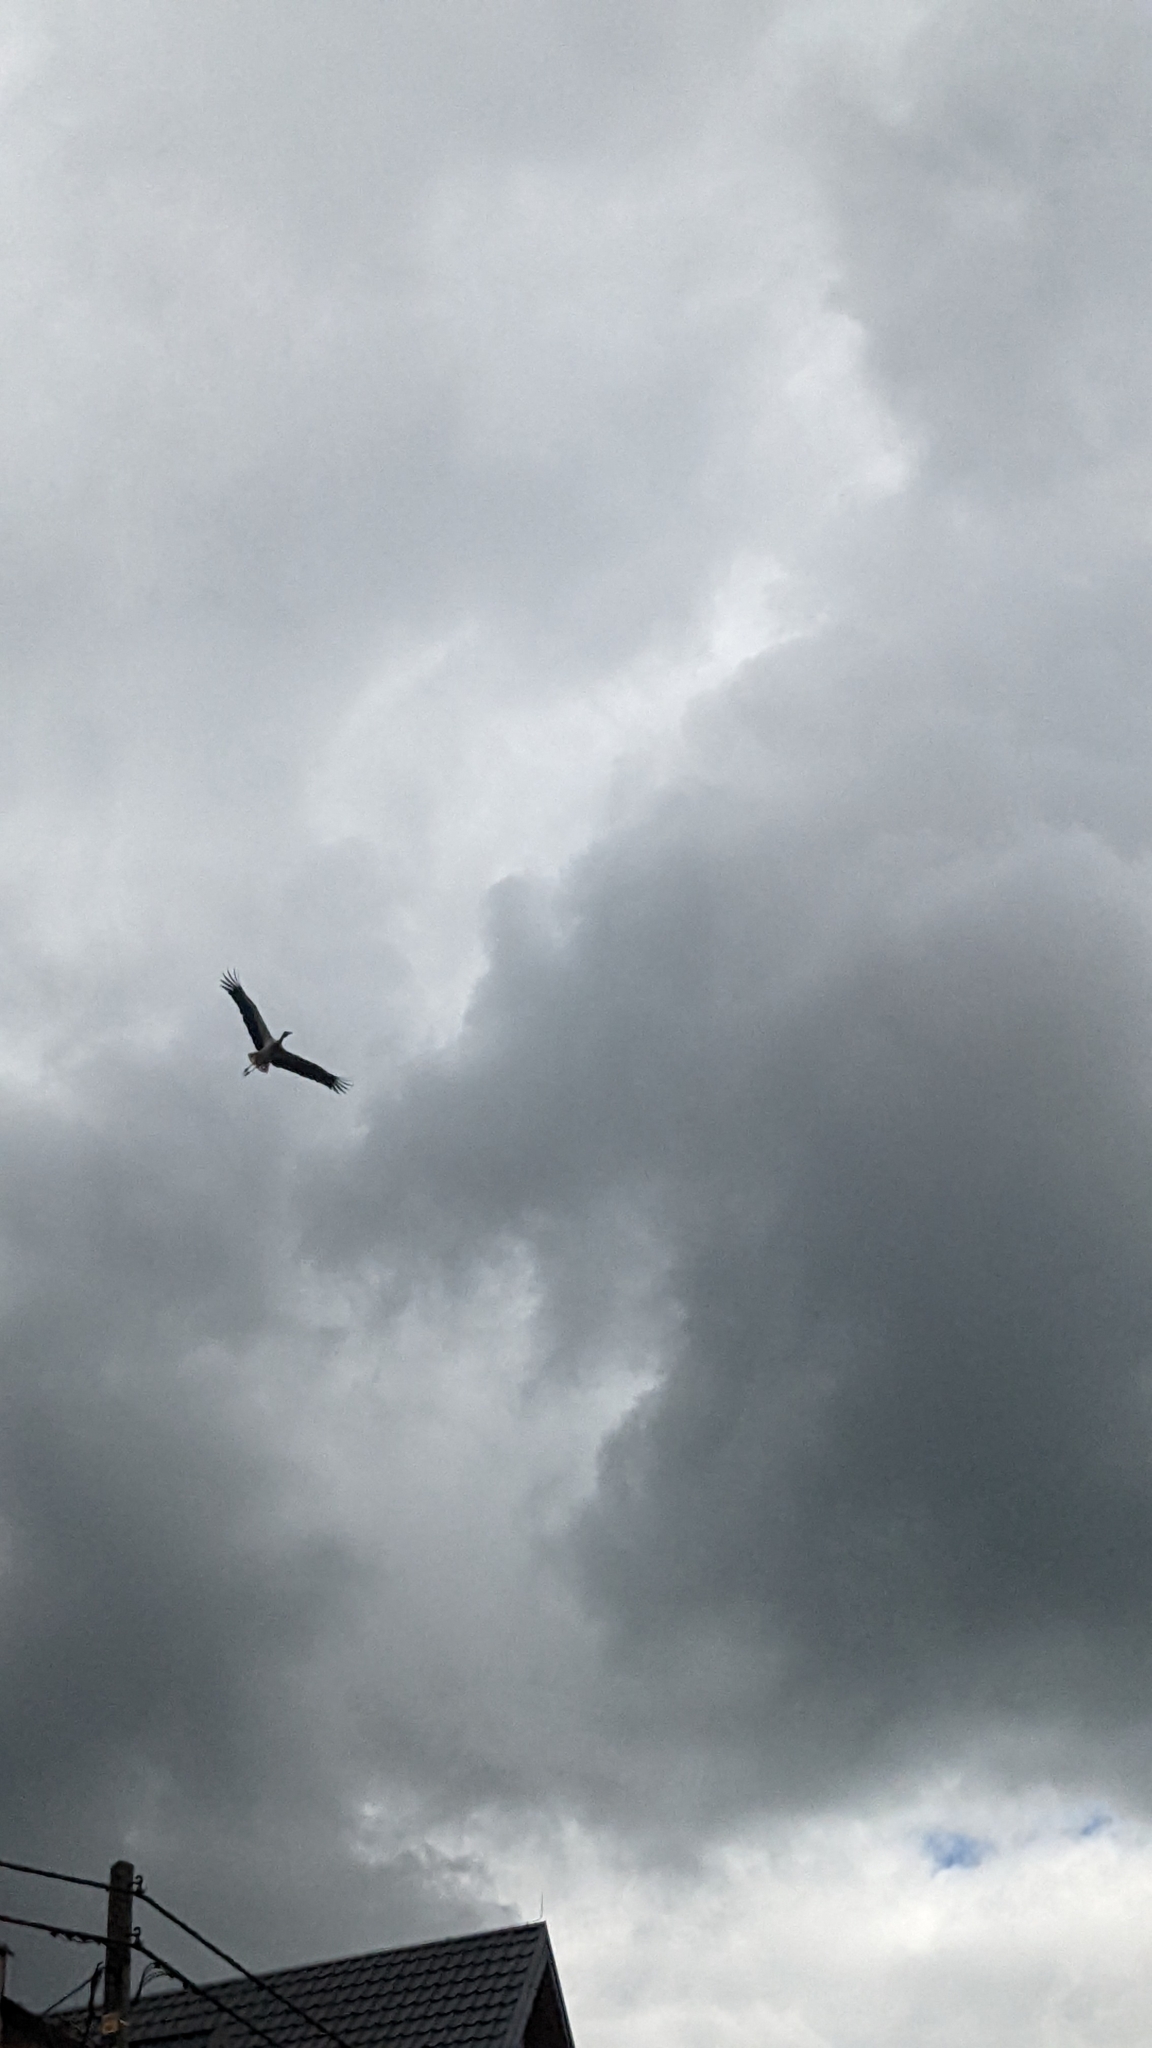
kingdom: Animalia
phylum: Chordata
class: Aves
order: Ciconiiformes
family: Ciconiidae
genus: Ciconia
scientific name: Ciconia ciconia
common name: White stork
